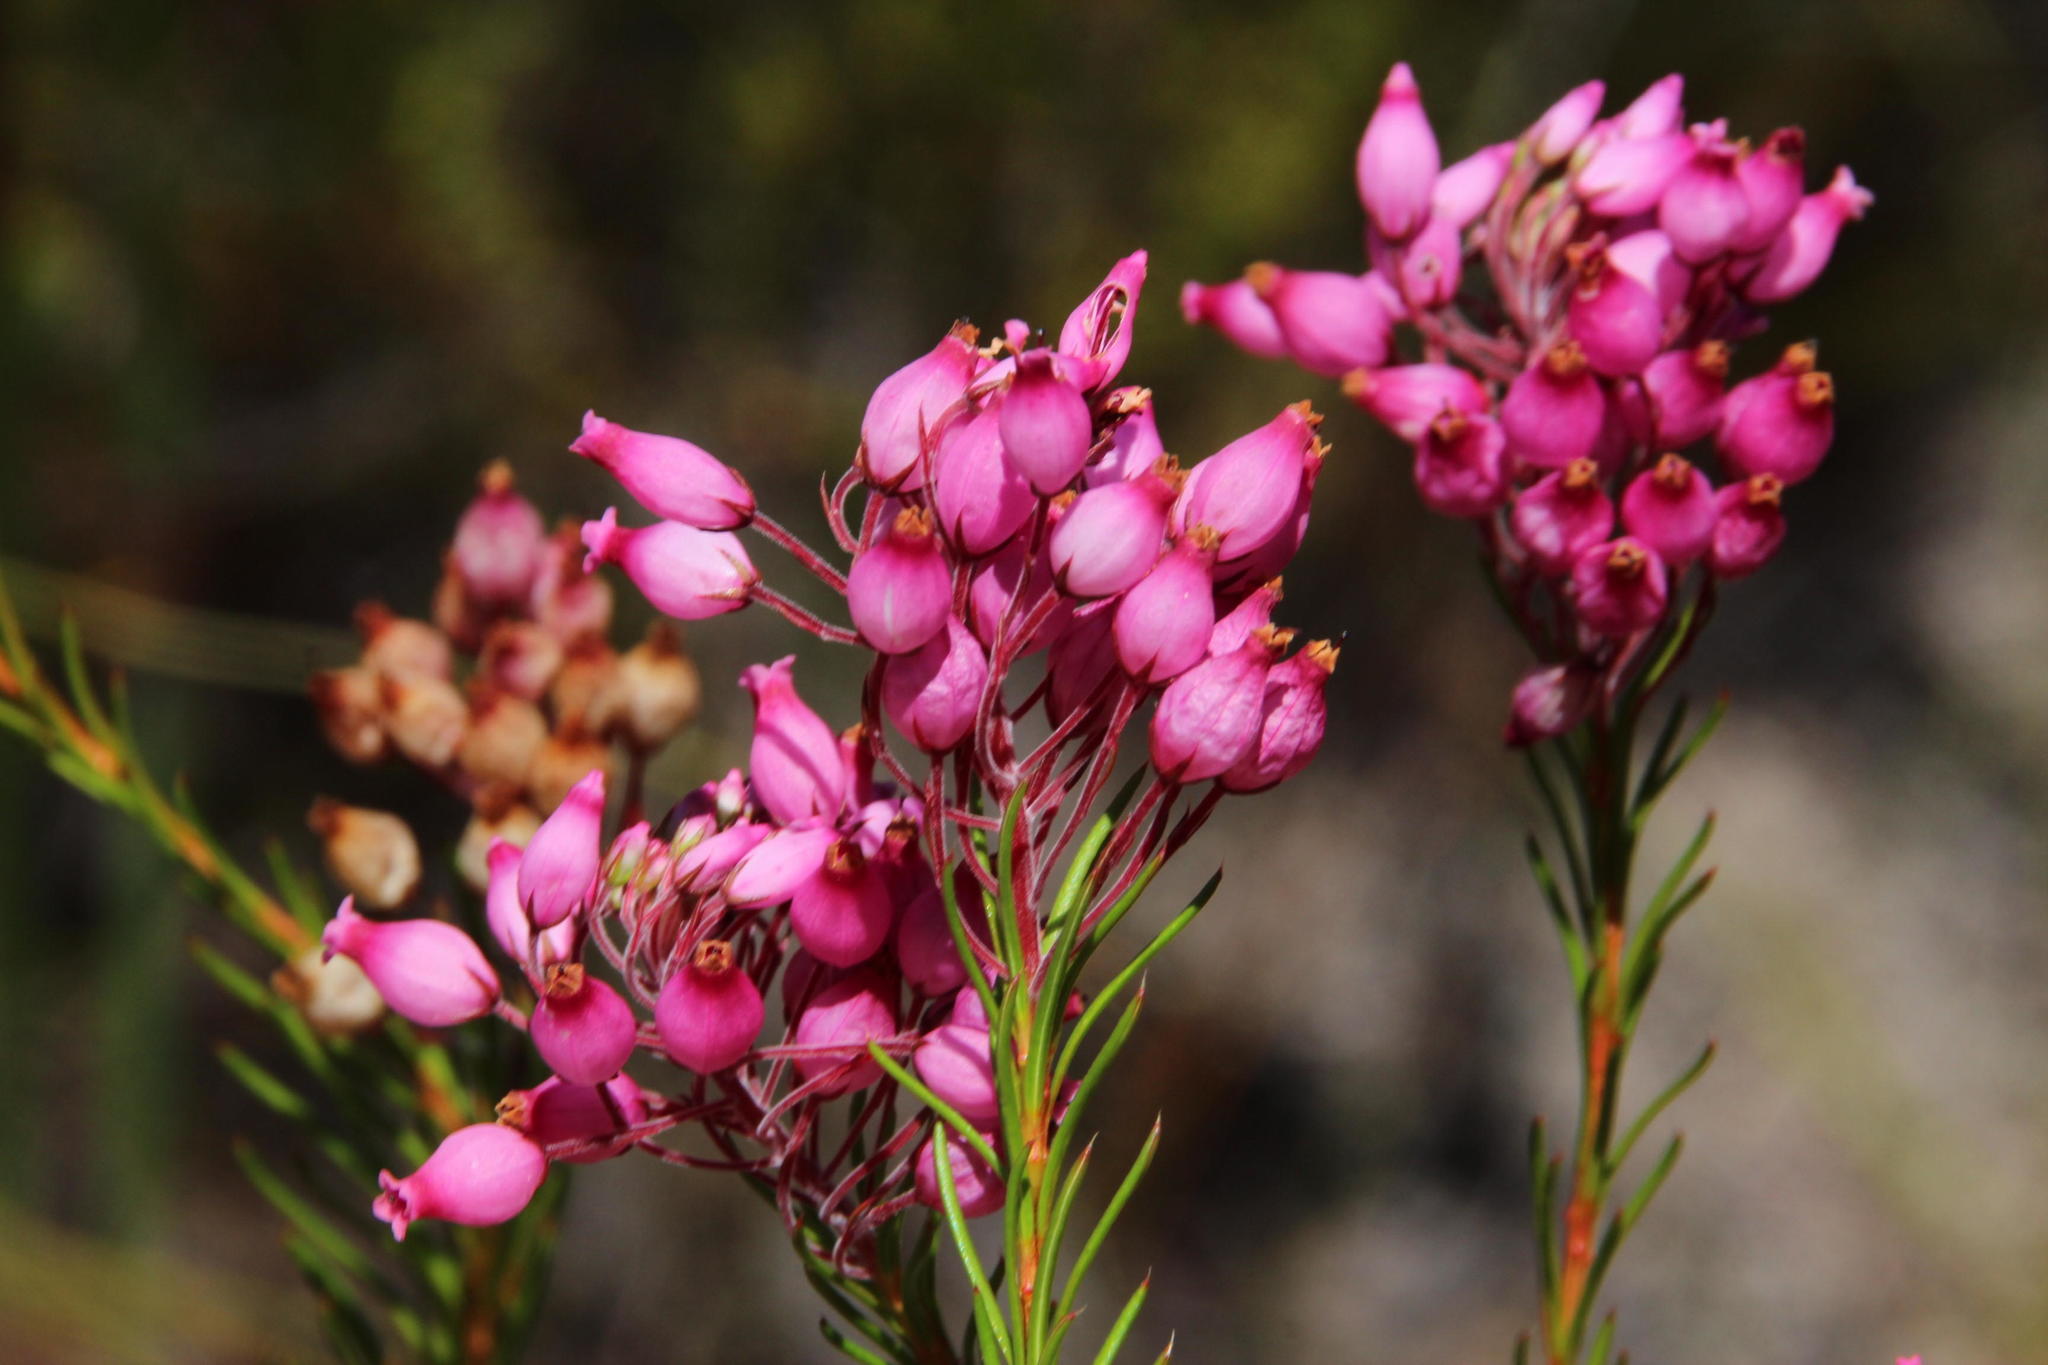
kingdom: Plantae
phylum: Tracheophyta
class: Magnoliopsida
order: Ericales
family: Ericaceae
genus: Erica
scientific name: Erica inflata
